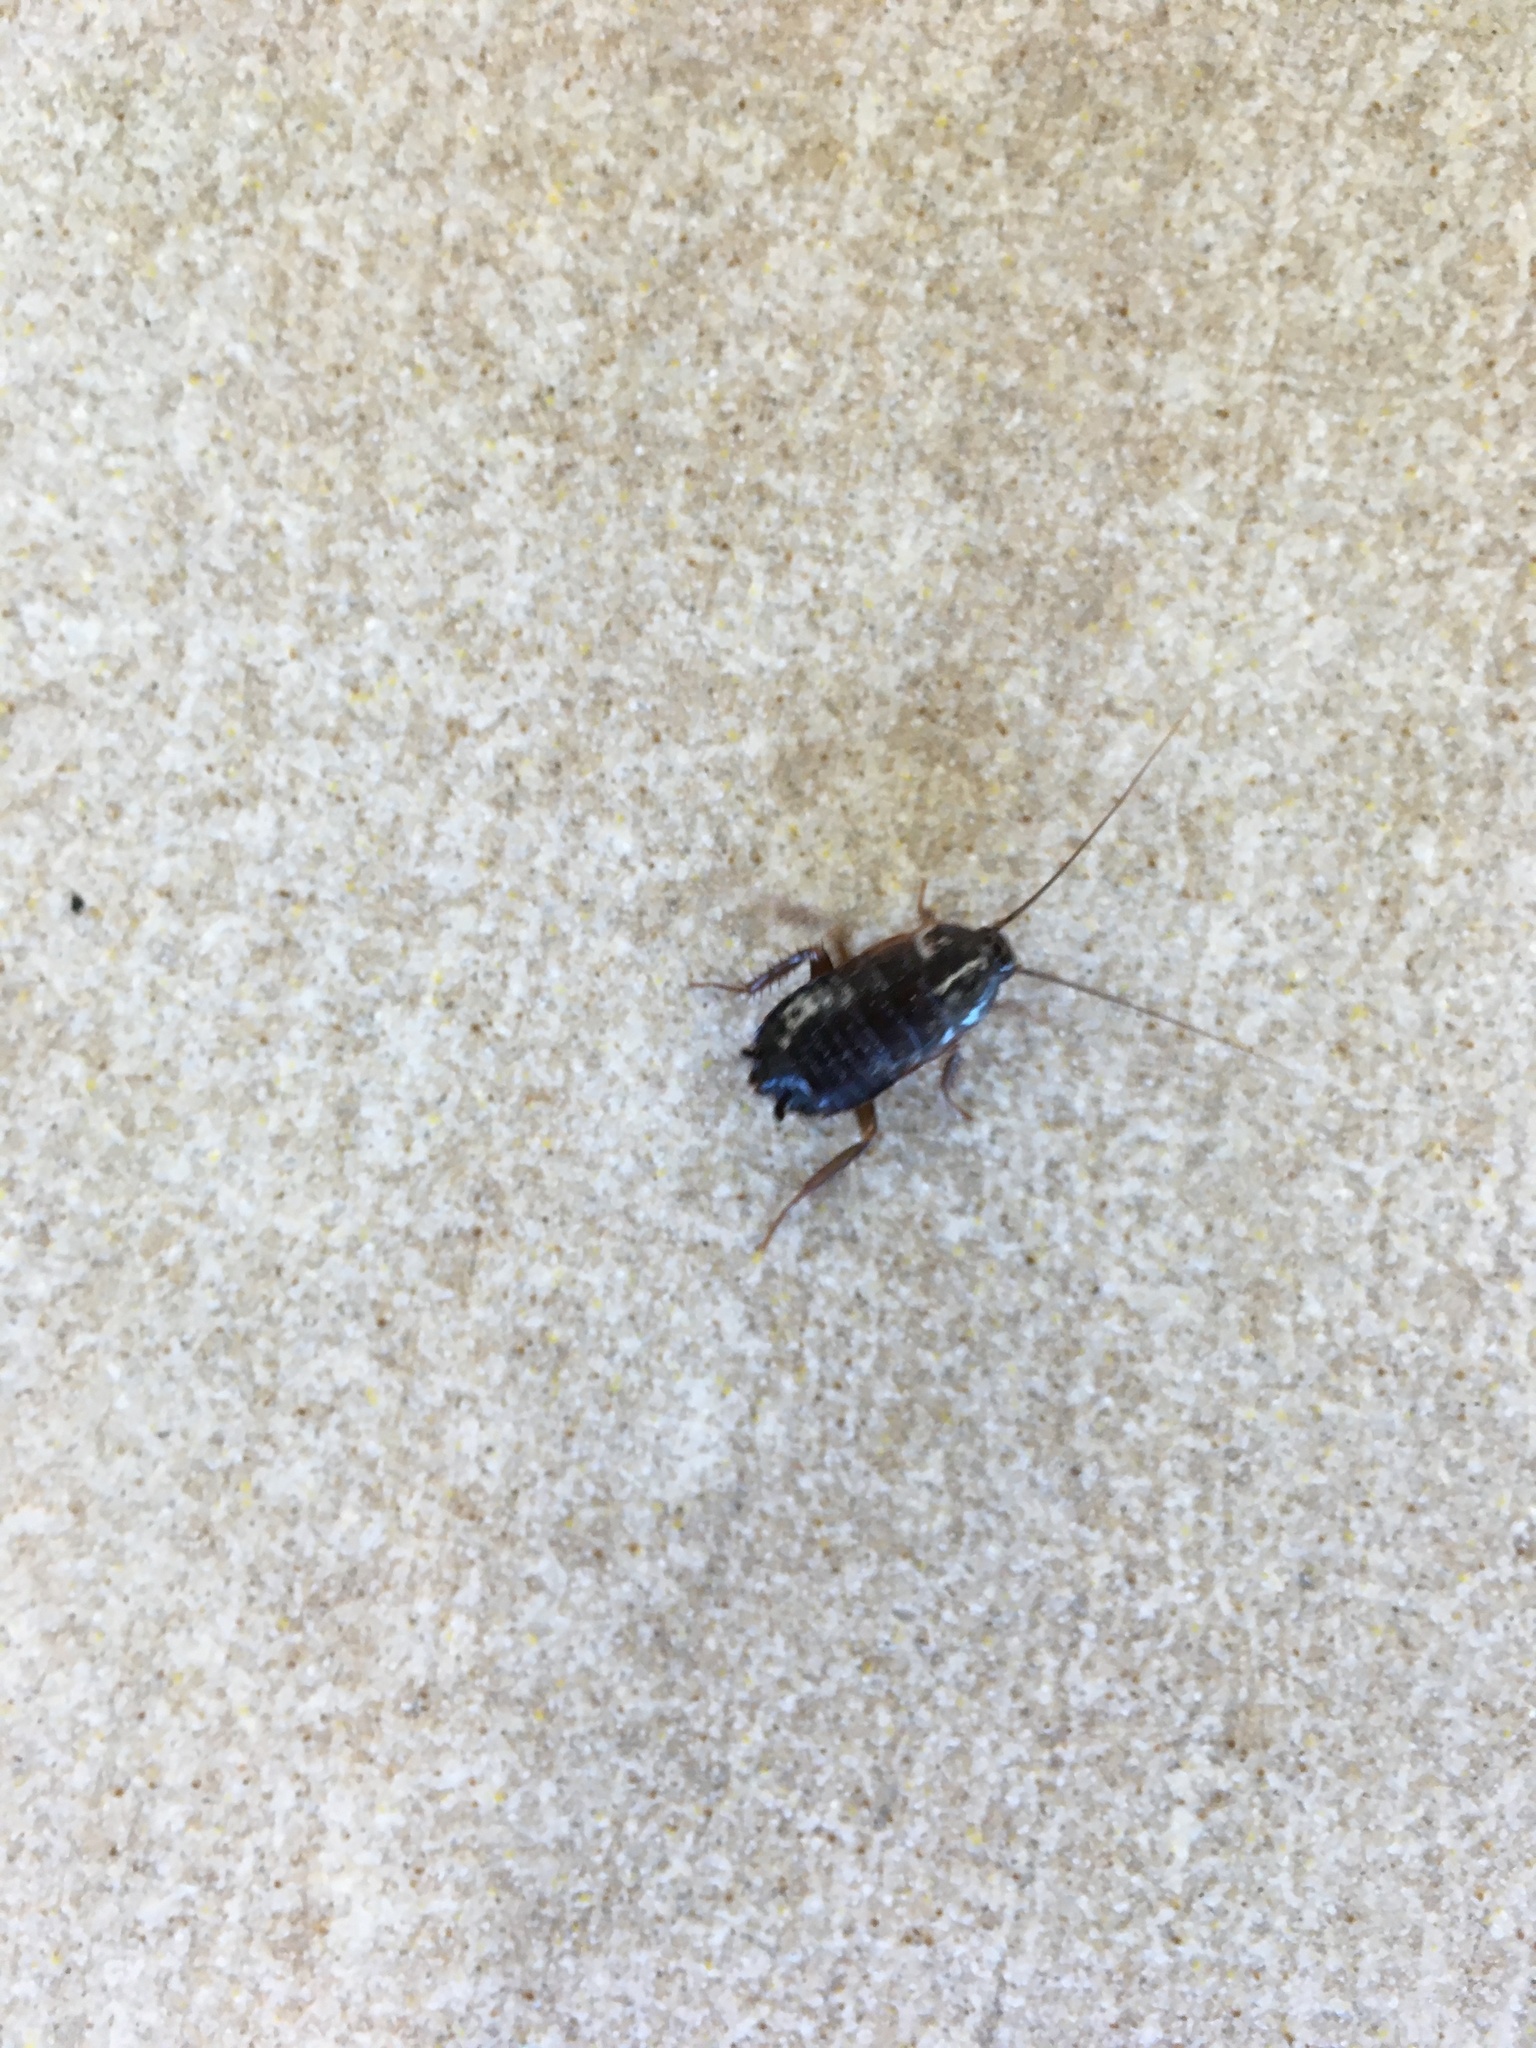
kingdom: Animalia
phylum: Arthropoda
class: Insecta
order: Blattodea
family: Blattidae
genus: Blatta
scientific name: Blatta orientalis
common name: Oriental cockroach
